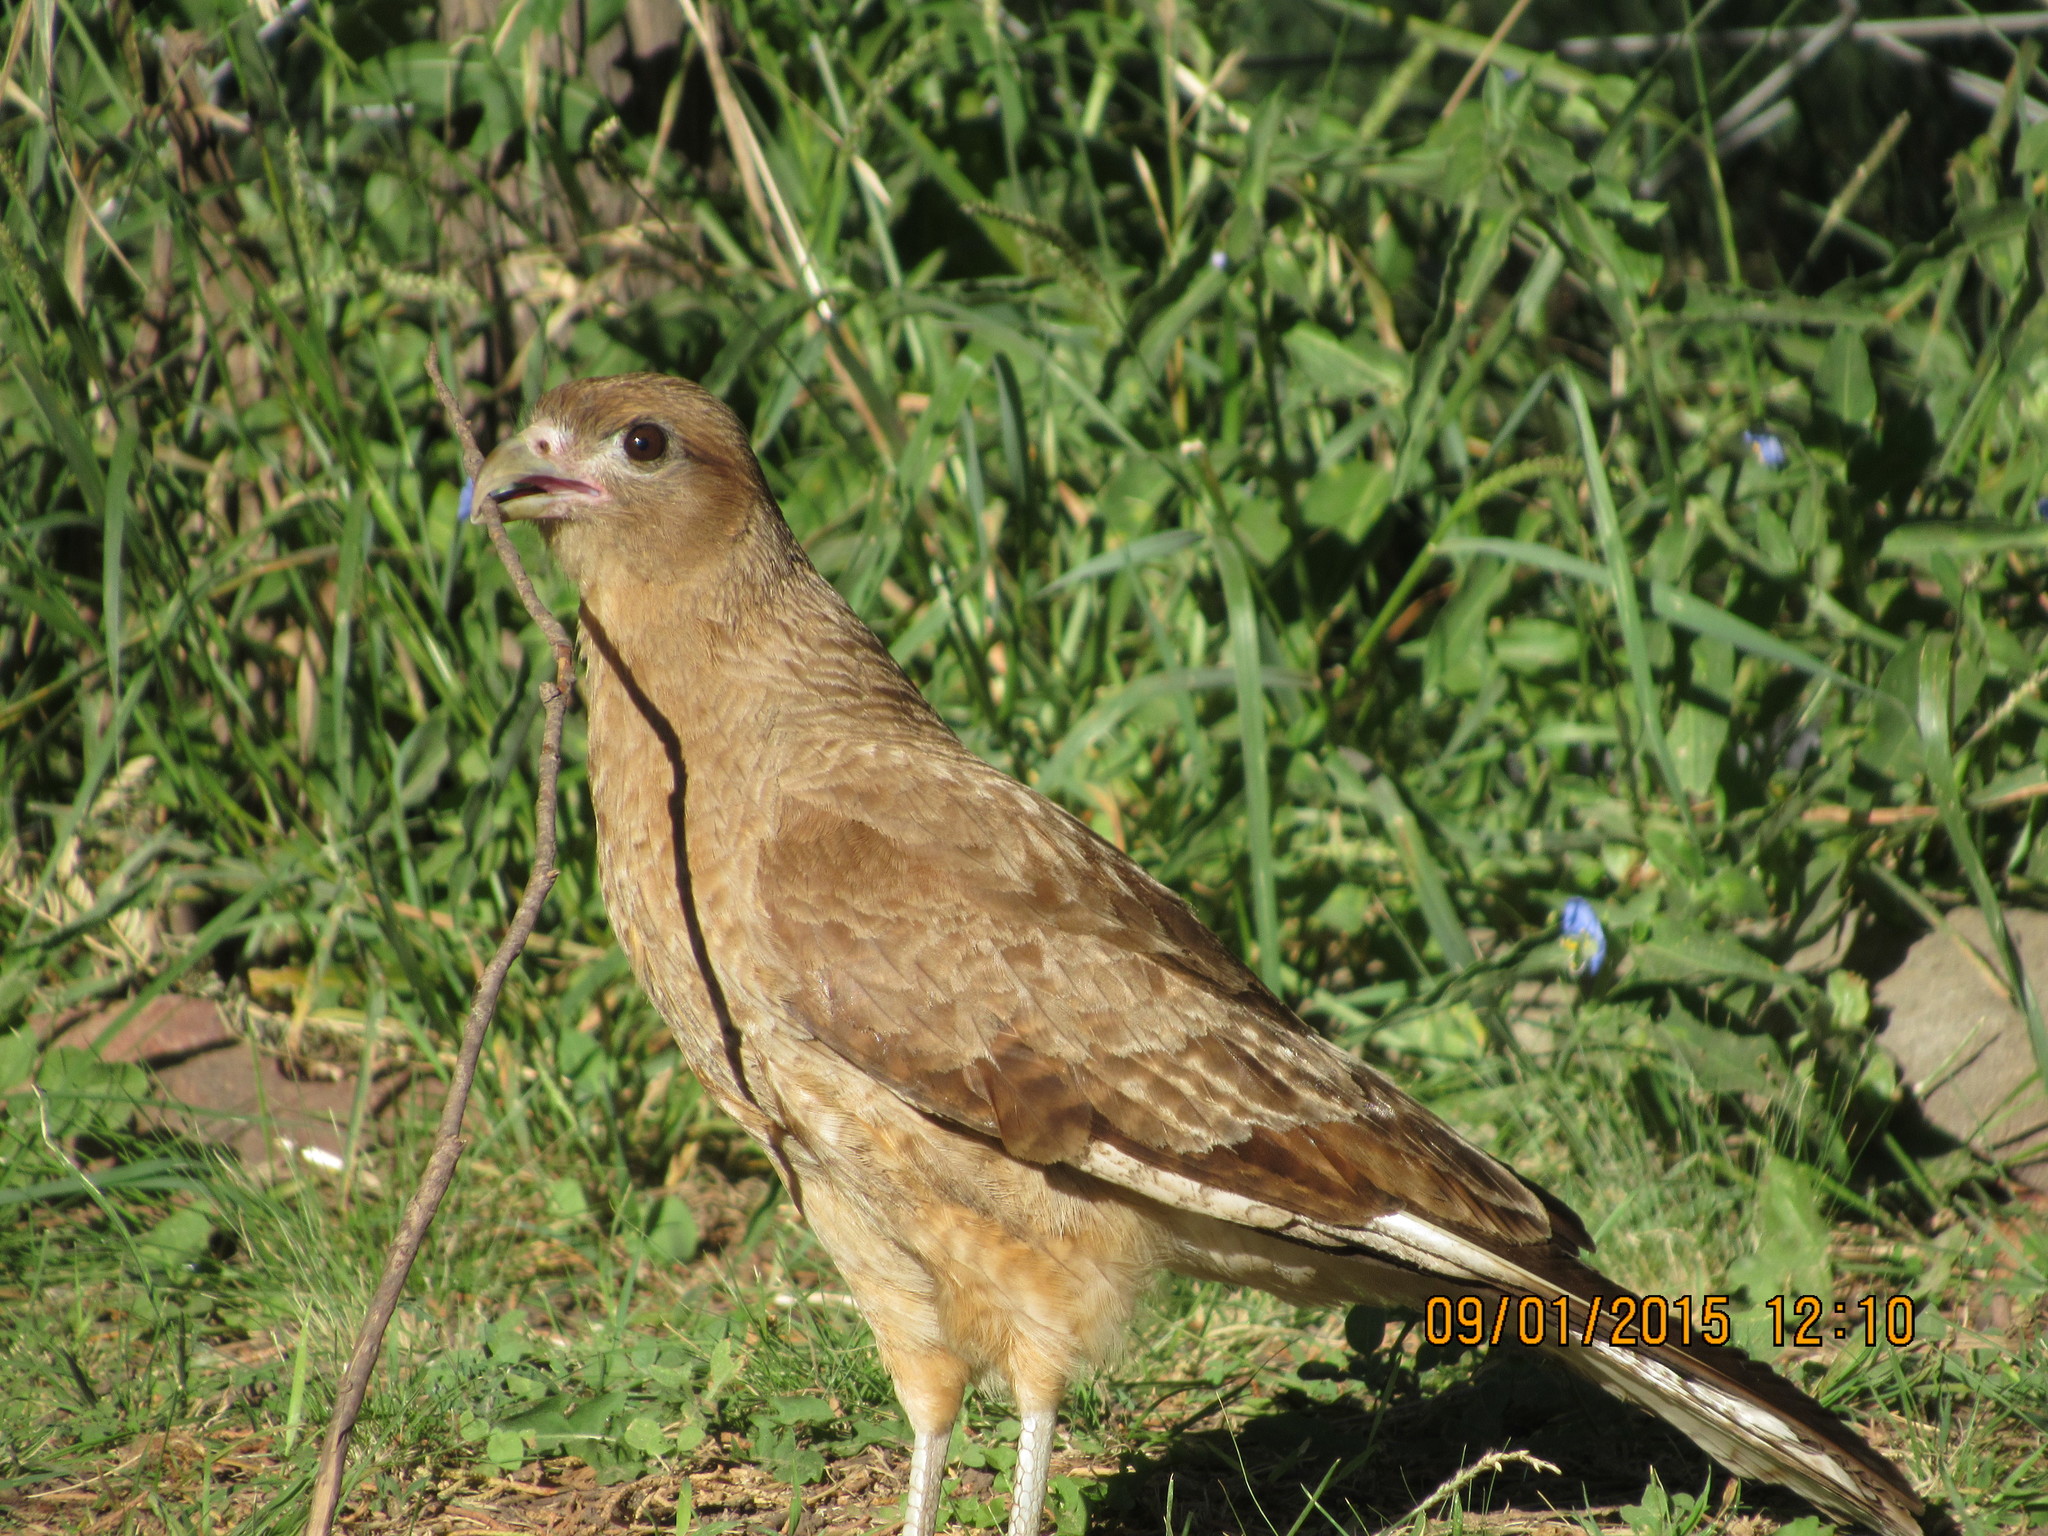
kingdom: Animalia
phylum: Chordata
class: Aves
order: Falconiformes
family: Falconidae
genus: Daptrius
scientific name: Daptrius
